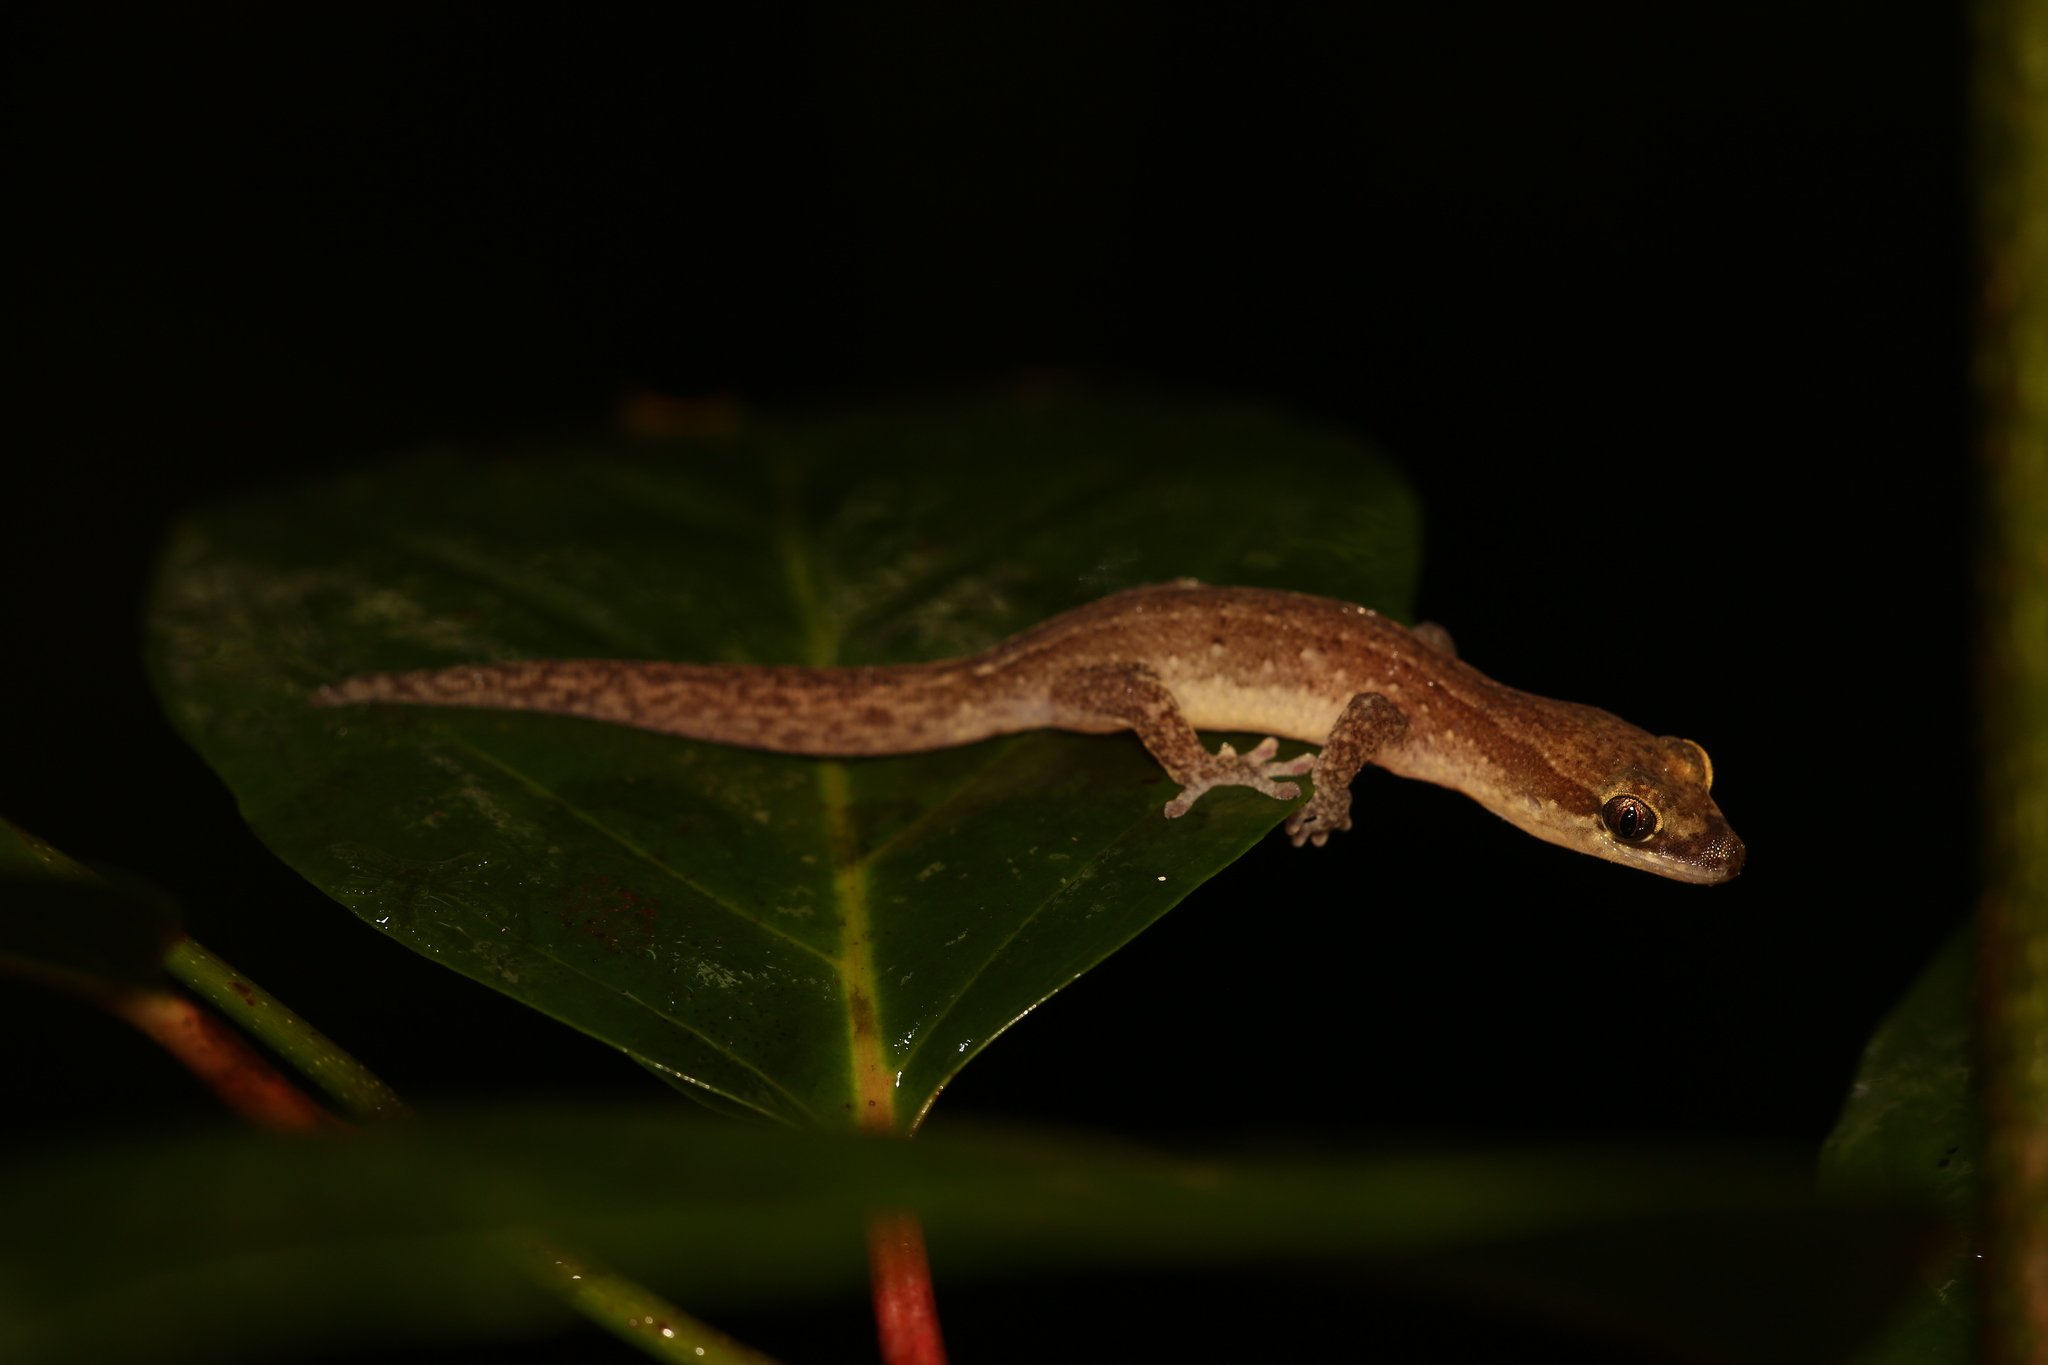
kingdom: Animalia
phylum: Chordata
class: Squamata
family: Diplodactylidae
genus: Bavayia
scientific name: Bavayia septuiclavis
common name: Pale-stripe bavayia
